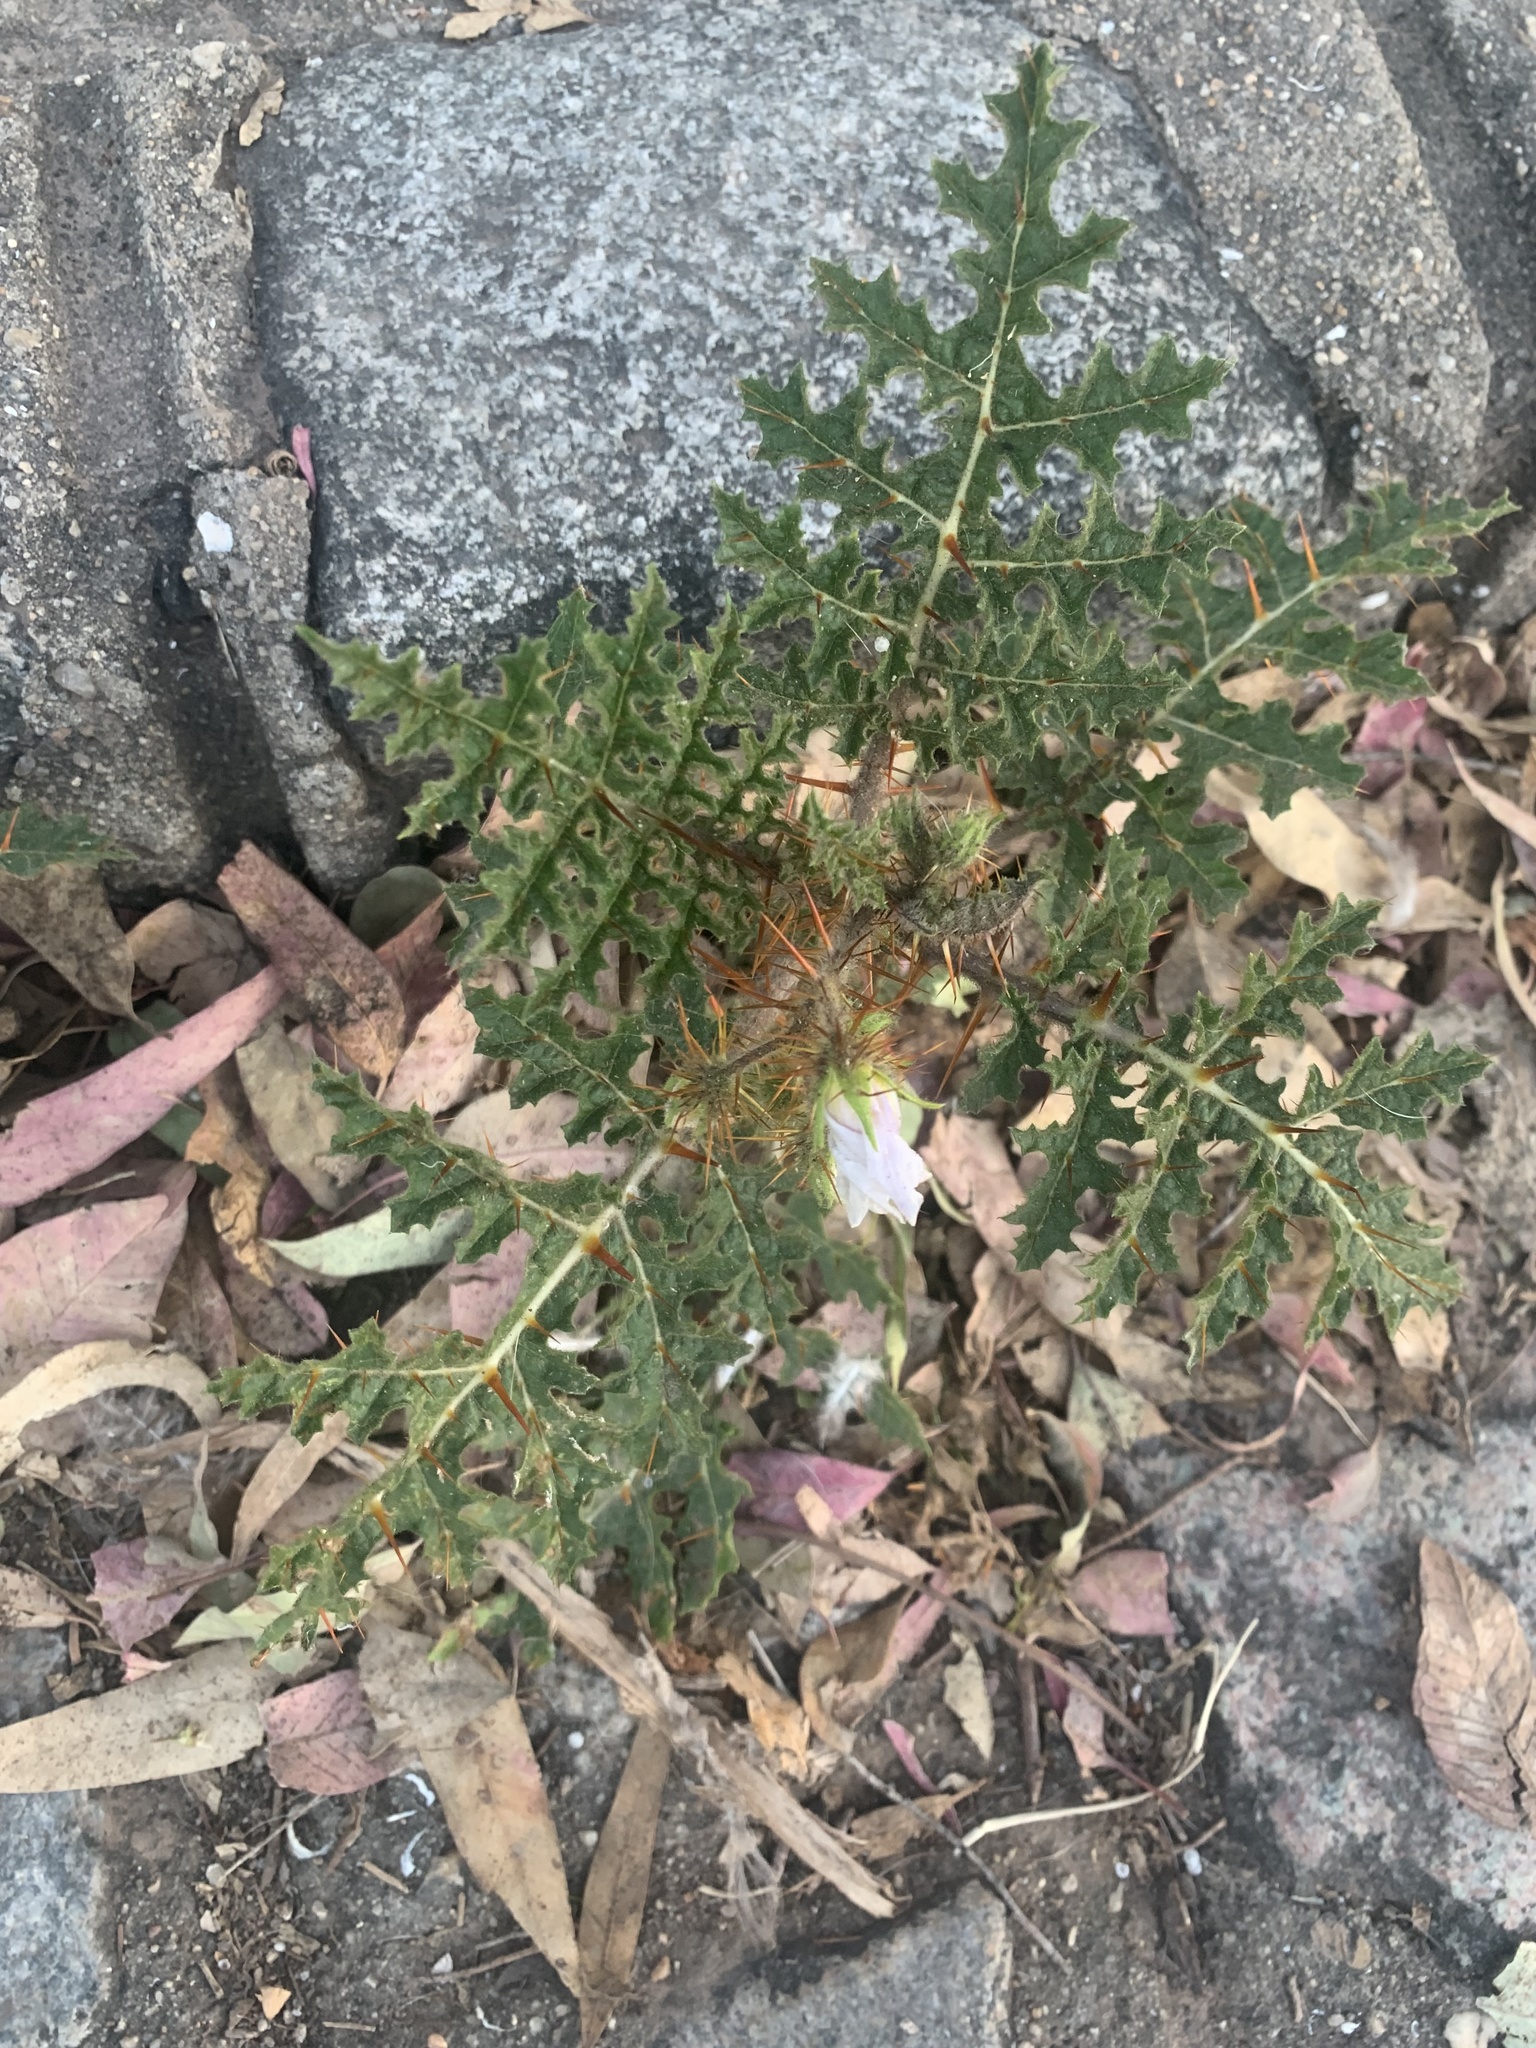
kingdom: Plantae
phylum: Tracheophyta
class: Magnoliopsida
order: Solanales
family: Solanaceae
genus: Solanum
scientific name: Solanum sisymbriifolium
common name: Red buffalo-bur
